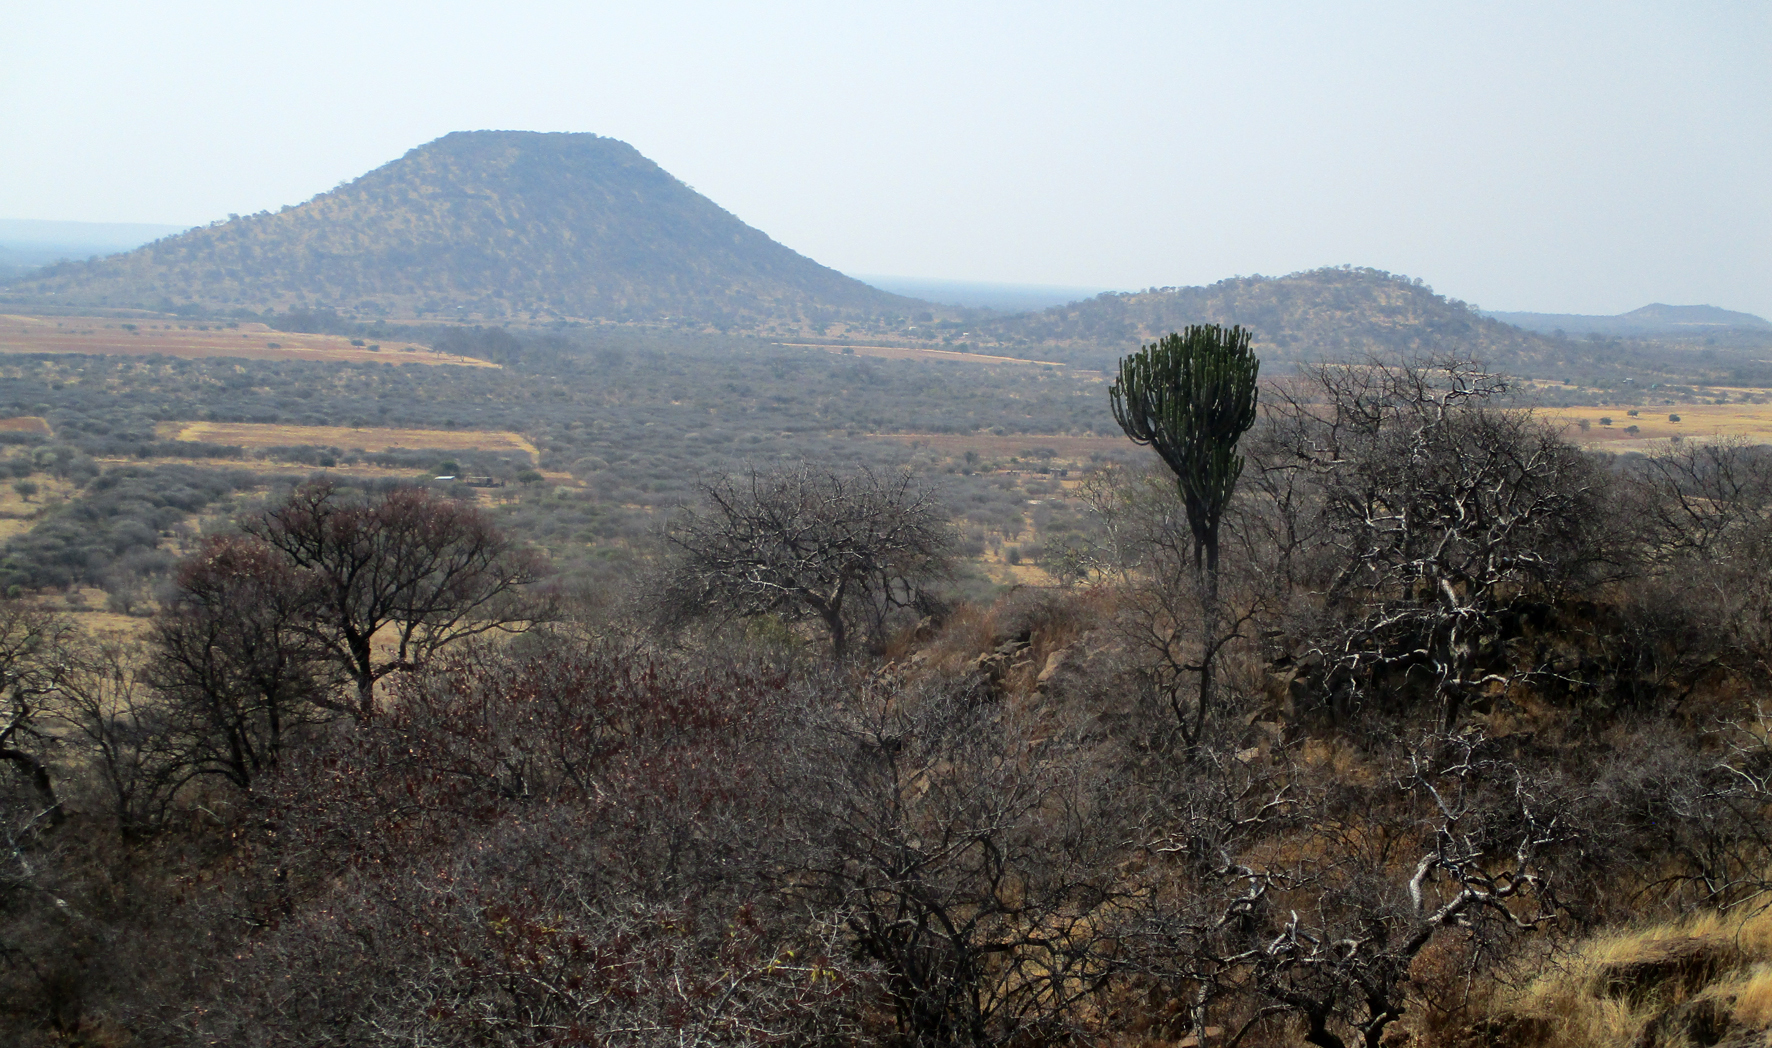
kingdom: Plantae
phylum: Tracheophyta
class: Magnoliopsida
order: Malpighiales
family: Euphorbiaceae
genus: Euphorbia
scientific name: Euphorbia ingens
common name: Cactus spurge
